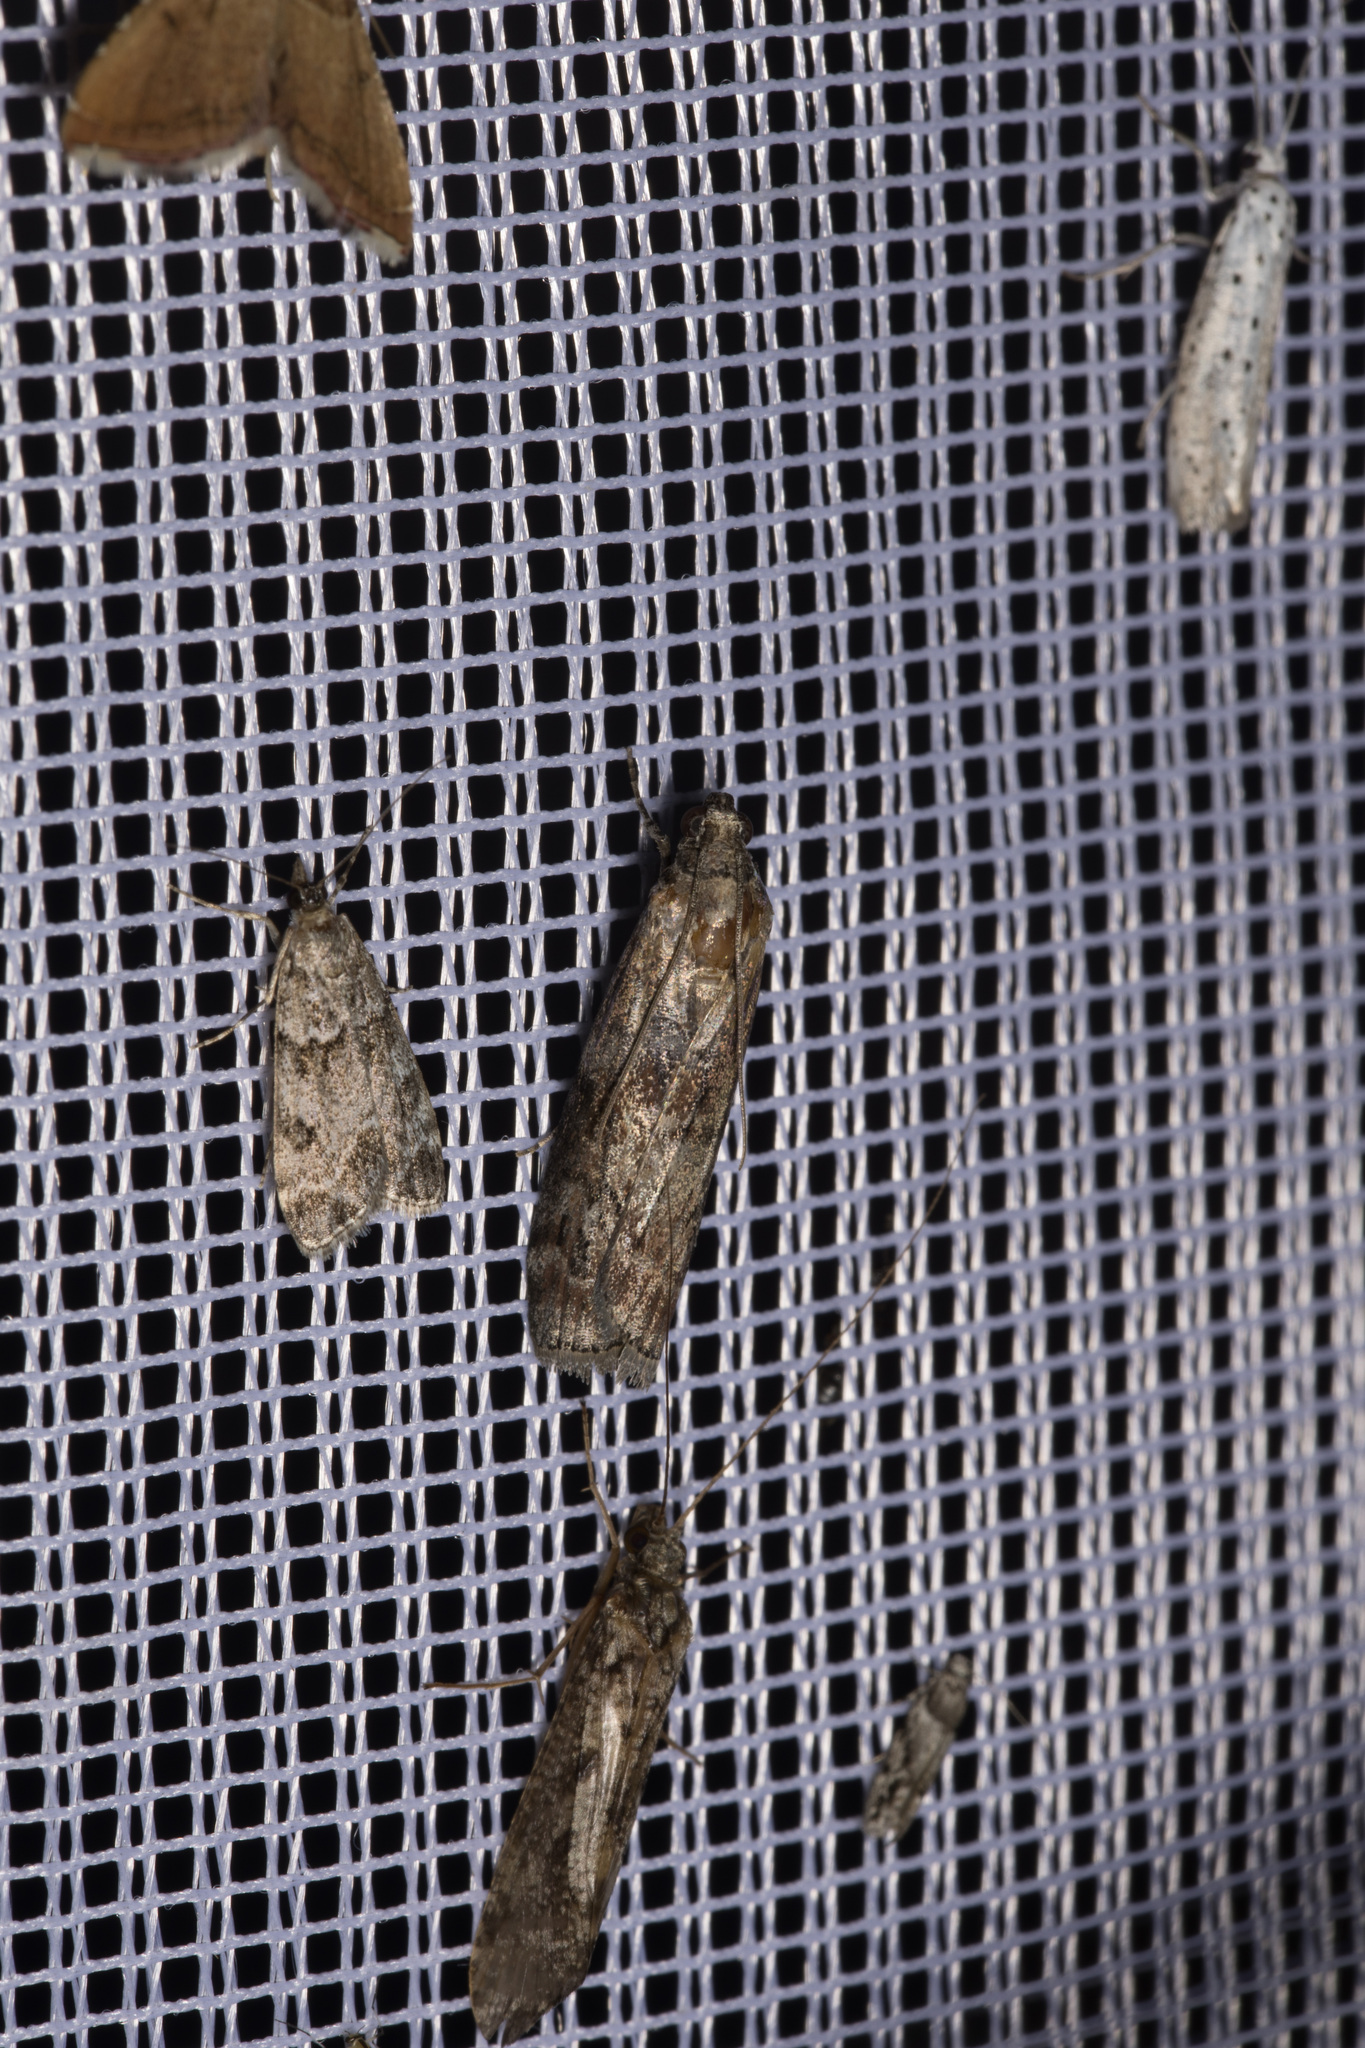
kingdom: Animalia
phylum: Arthropoda
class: Insecta
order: Lepidoptera
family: Gelechiidae
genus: Recurvaria
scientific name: Recurvaria nanella
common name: Gelechiid moth
